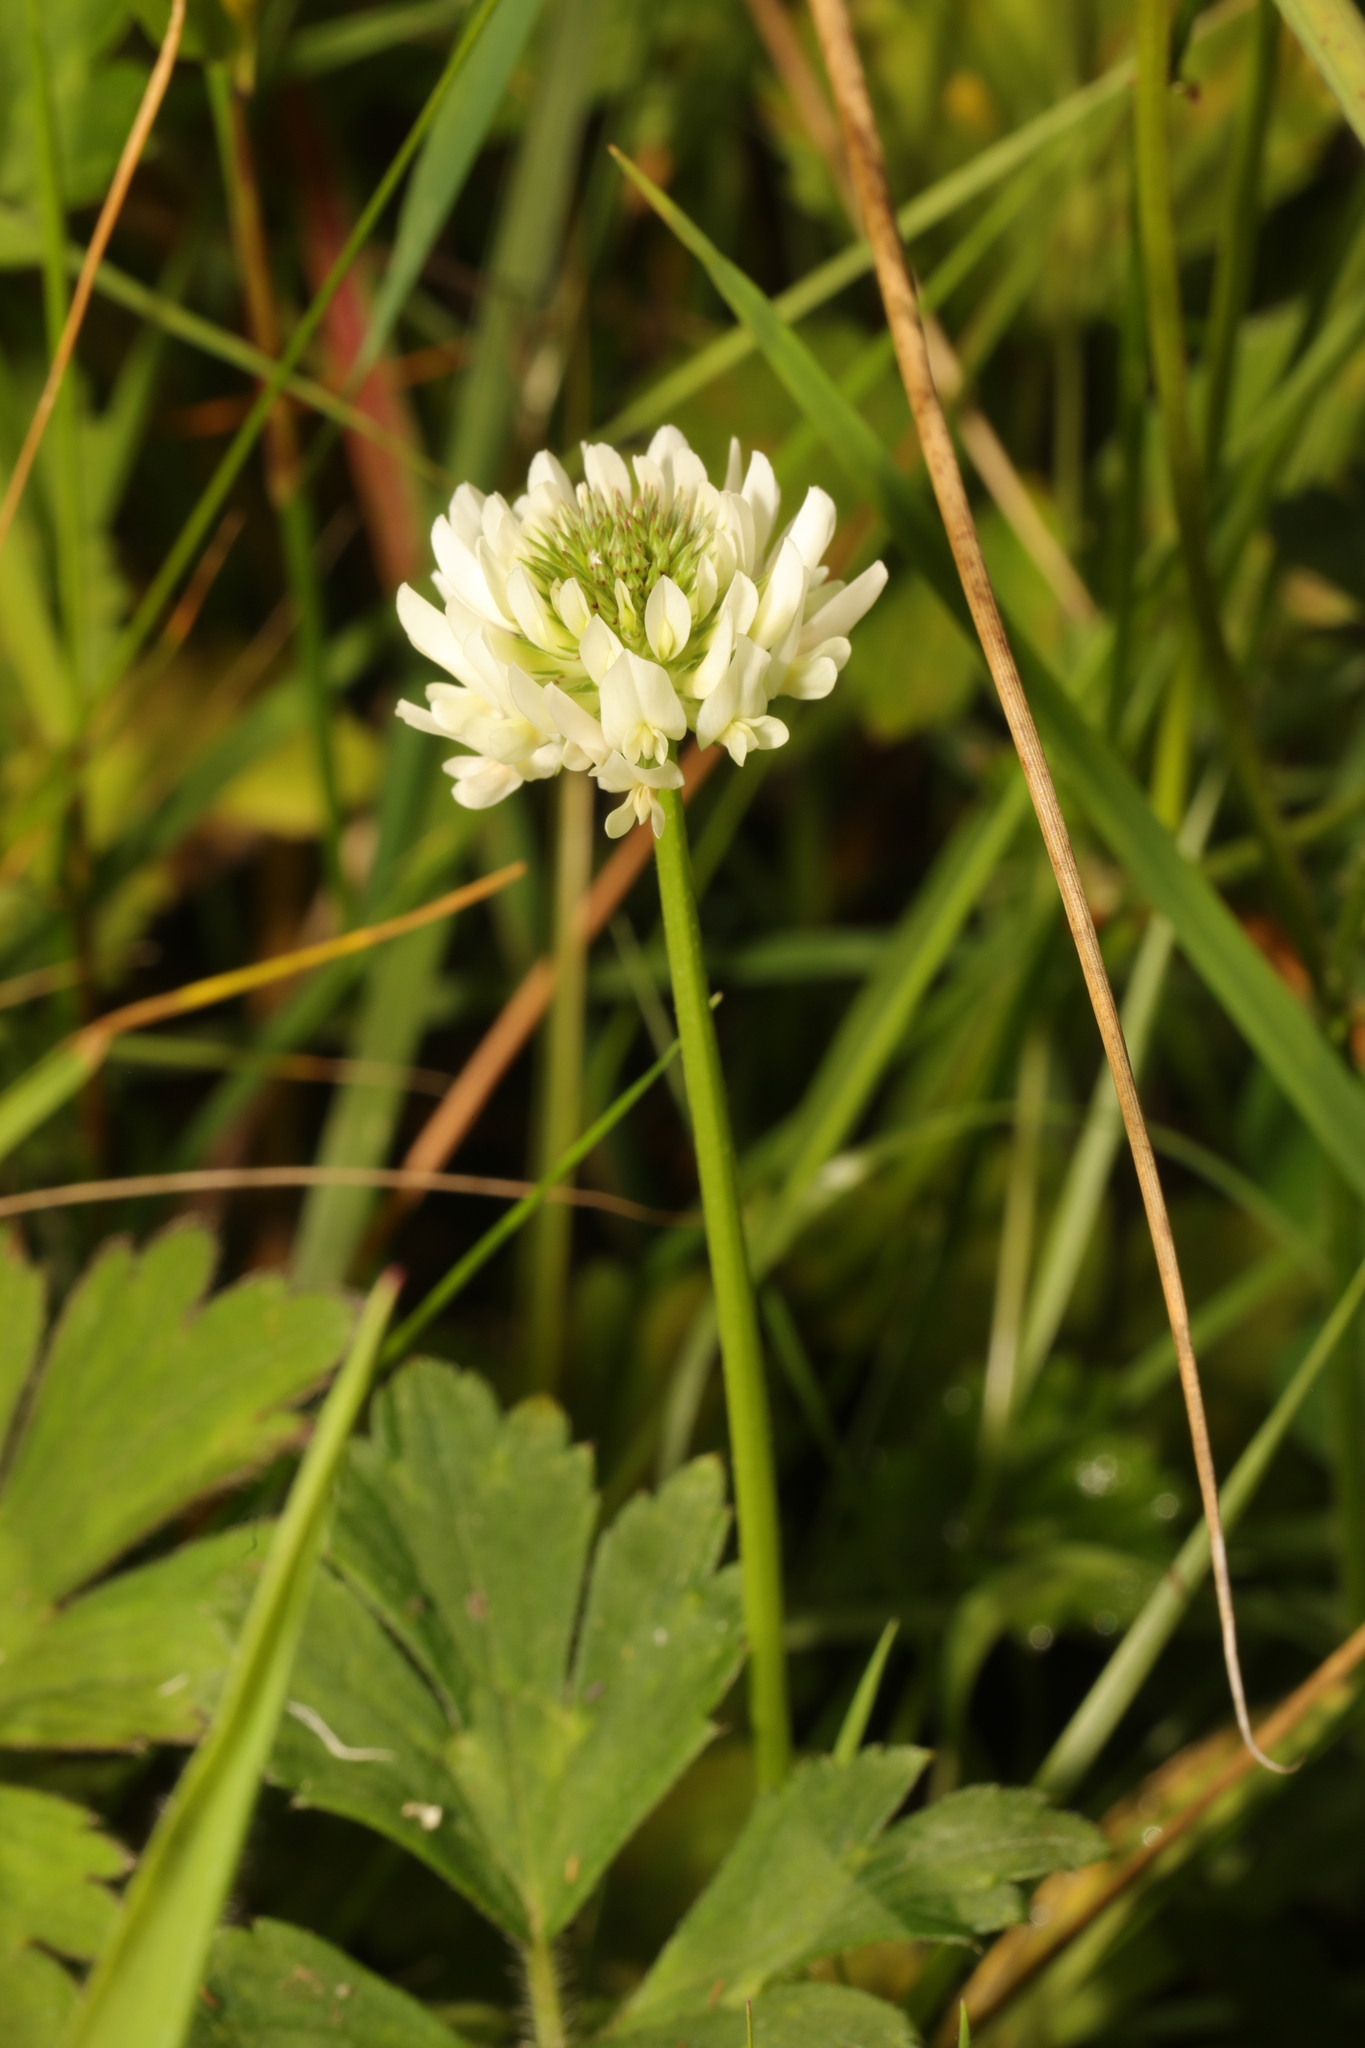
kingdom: Plantae
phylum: Tracheophyta
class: Magnoliopsida
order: Fabales
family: Fabaceae
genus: Trifolium
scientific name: Trifolium repens
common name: White clover
